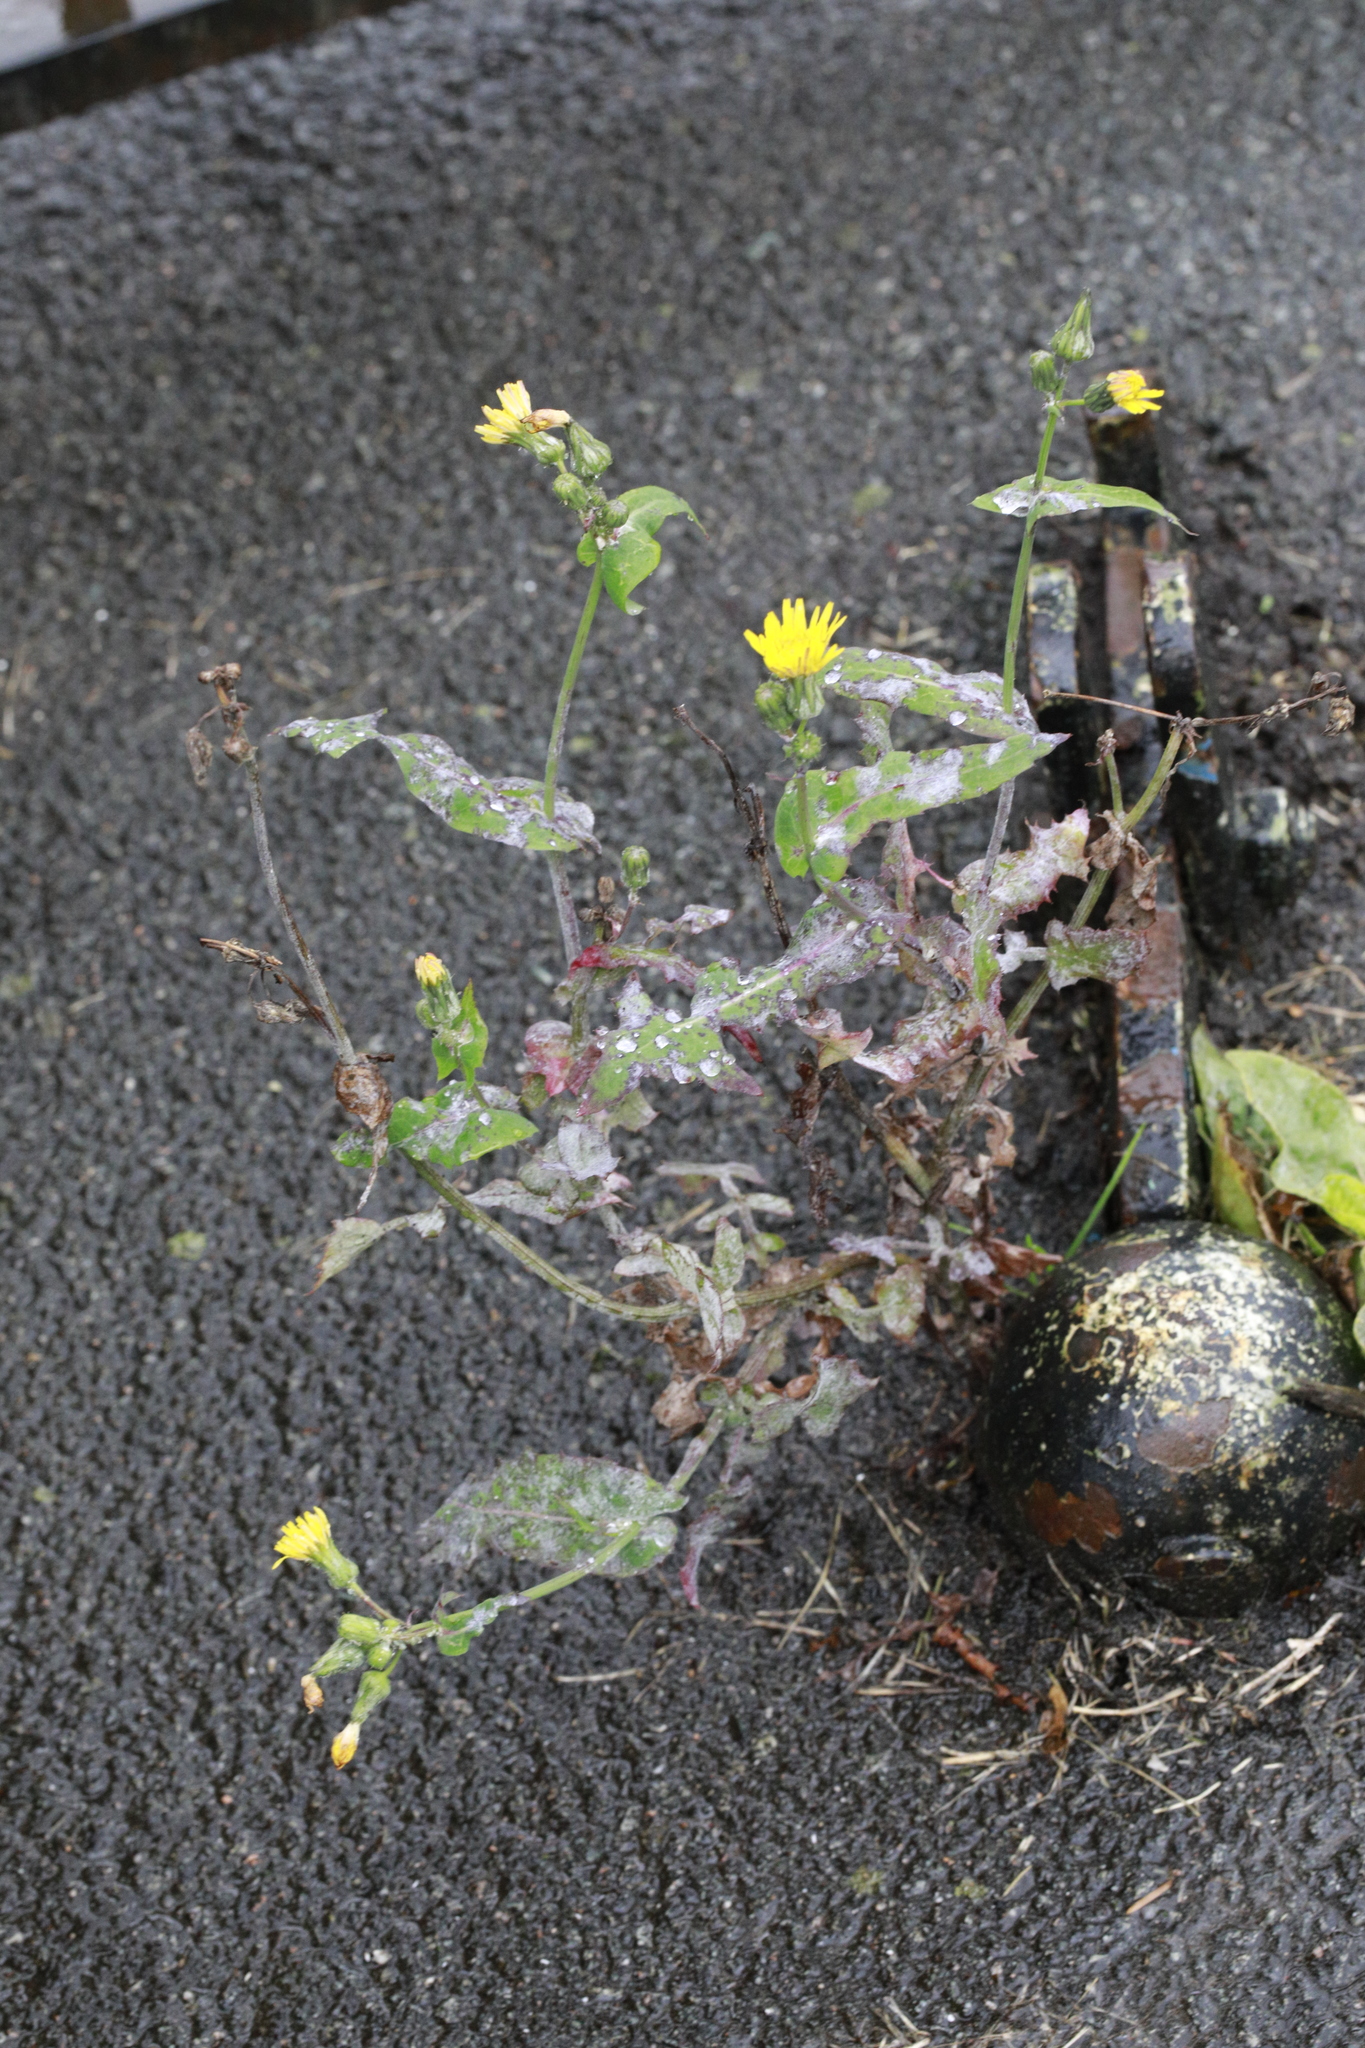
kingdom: Plantae
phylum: Tracheophyta
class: Magnoliopsida
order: Asterales
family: Asteraceae
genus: Sonchus
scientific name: Sonchus oleraceus
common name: Common sowthistle
